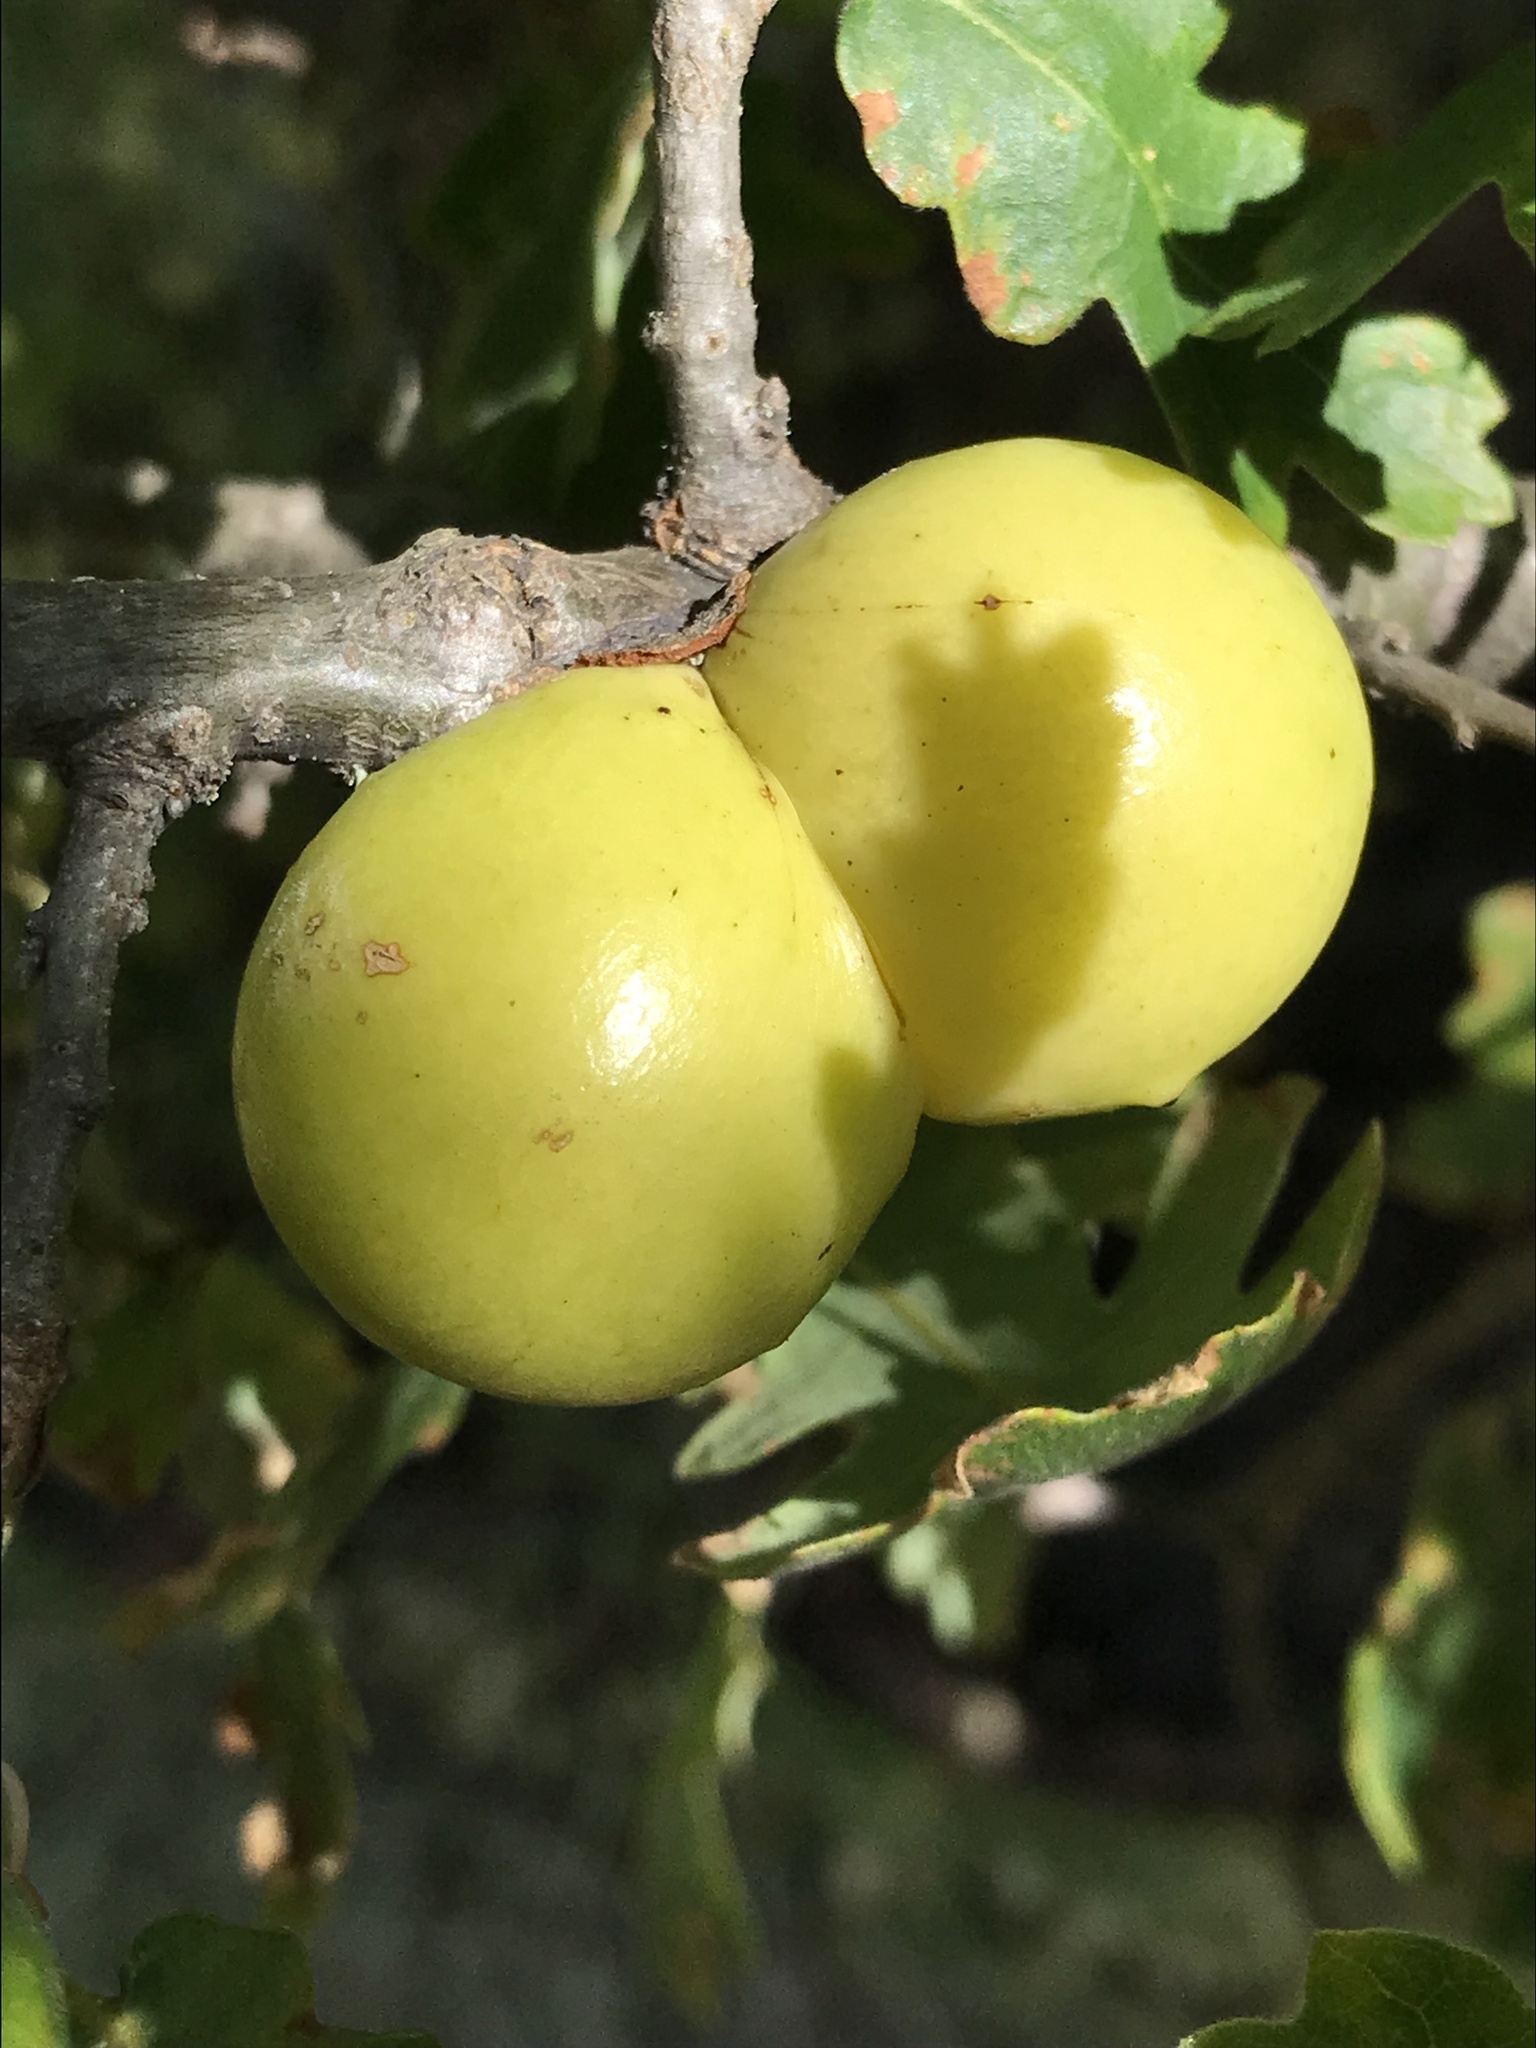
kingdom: Animalia
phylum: Arthropoda
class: Insecta
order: Hymenoptera
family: Cynipidae
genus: Andricus
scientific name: Andricus quercuscalifornicus
